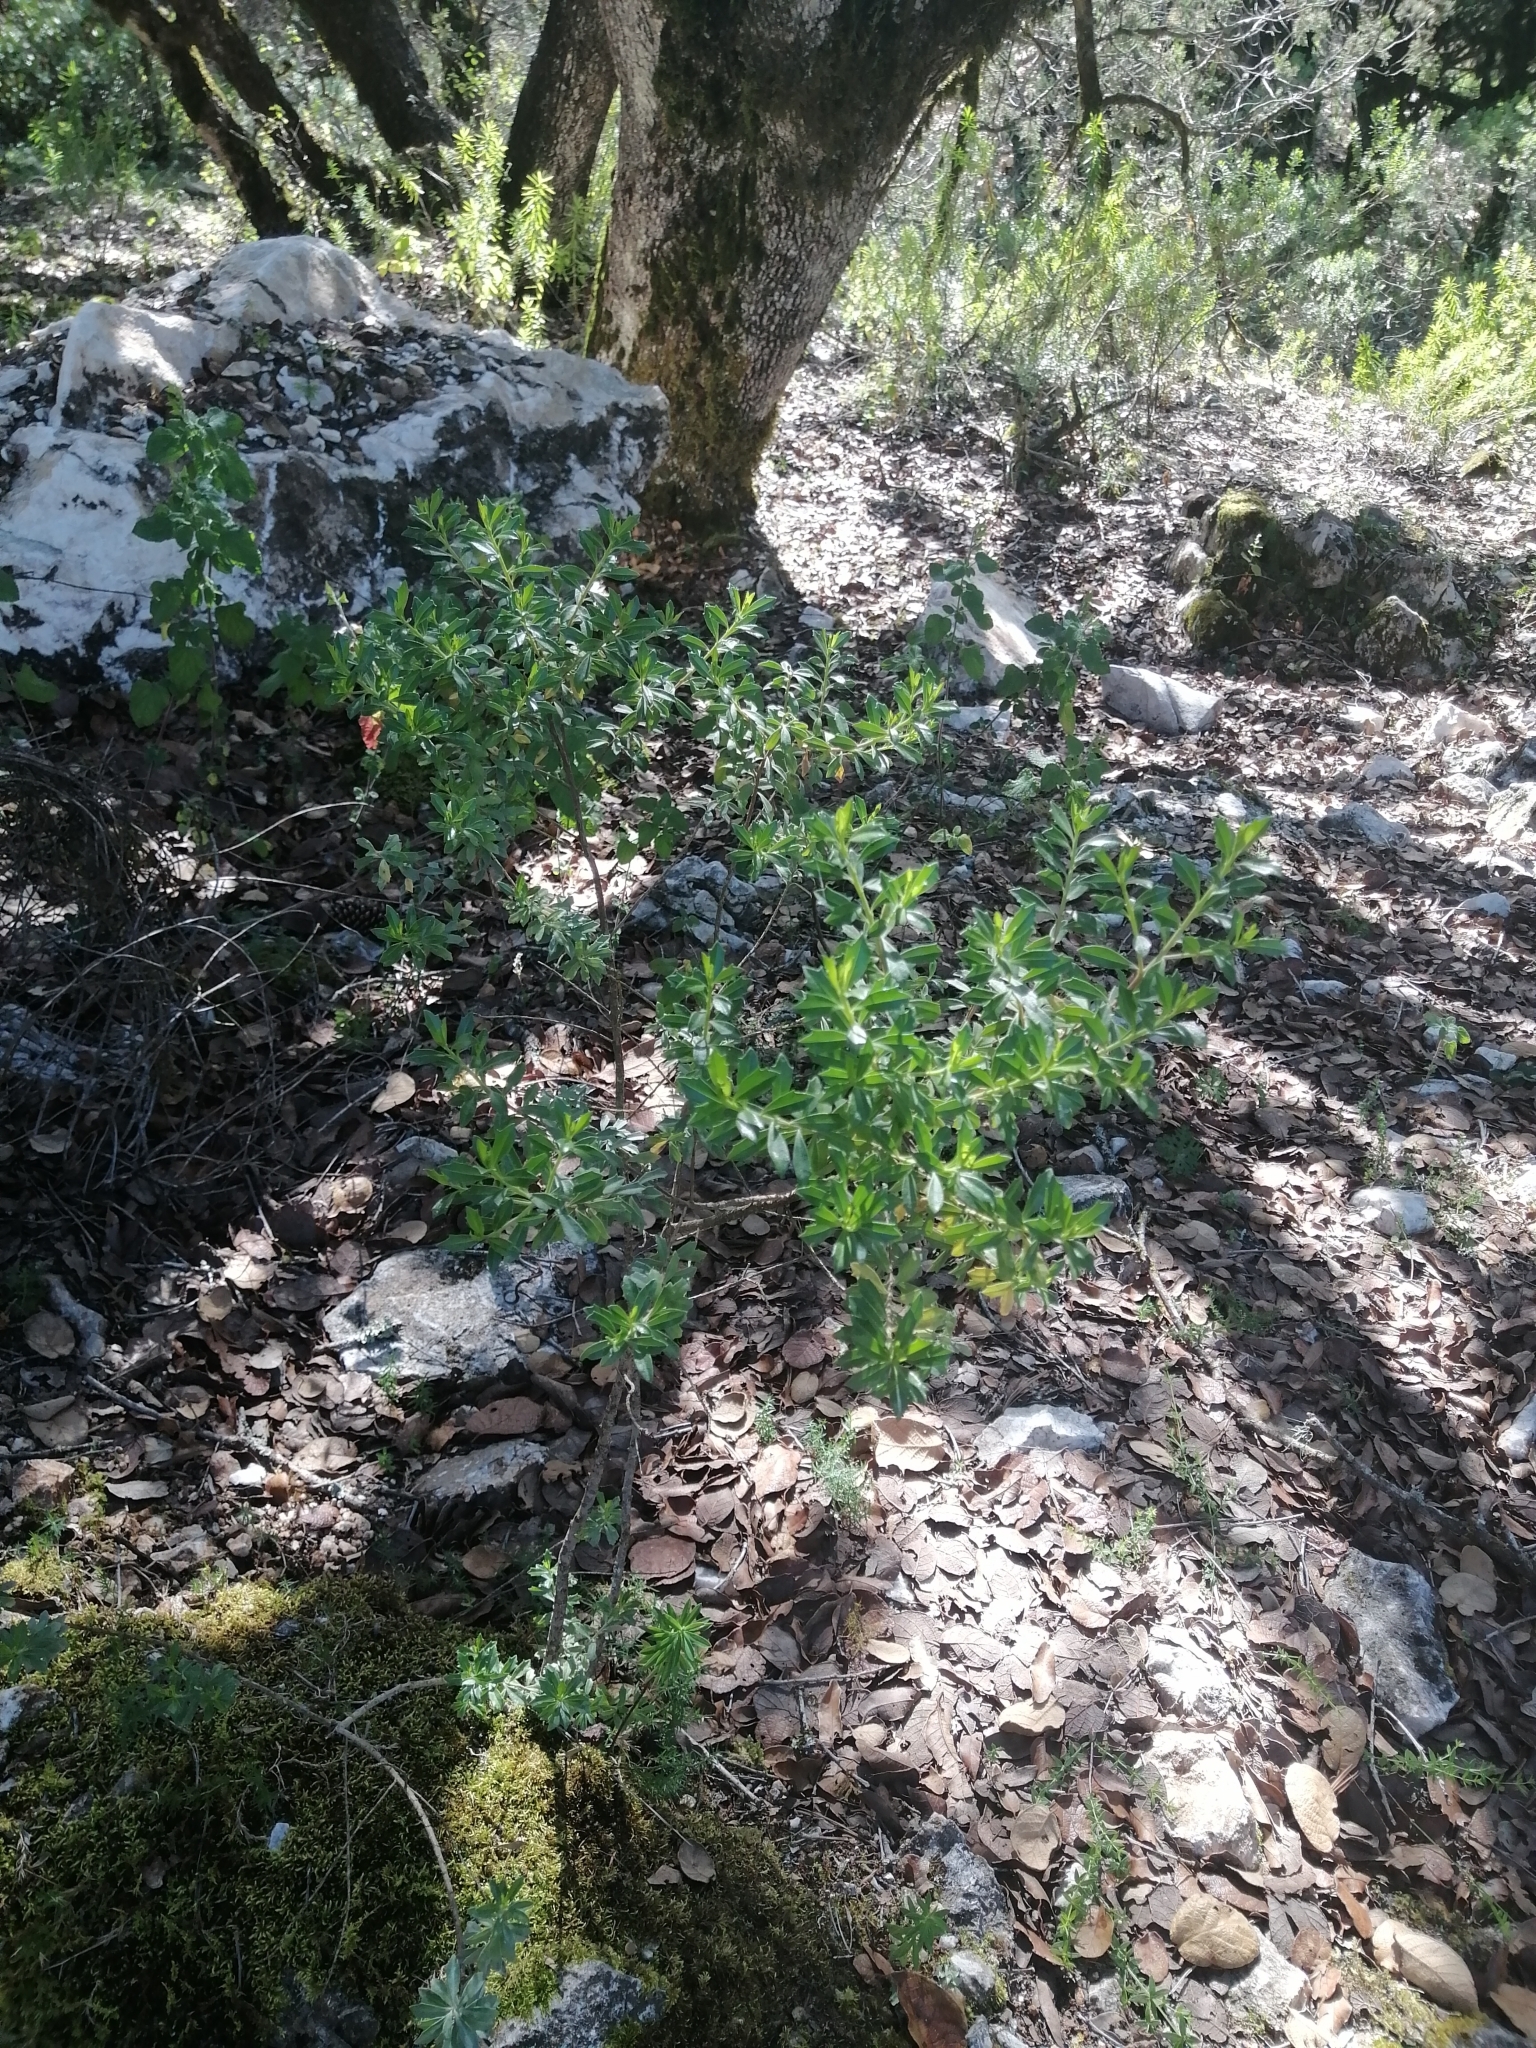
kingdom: Plantae
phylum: Tracheophyta
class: Magnoliopsida
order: Asterales
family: Asteraceae
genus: Baccharis
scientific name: Baccharis conferta
